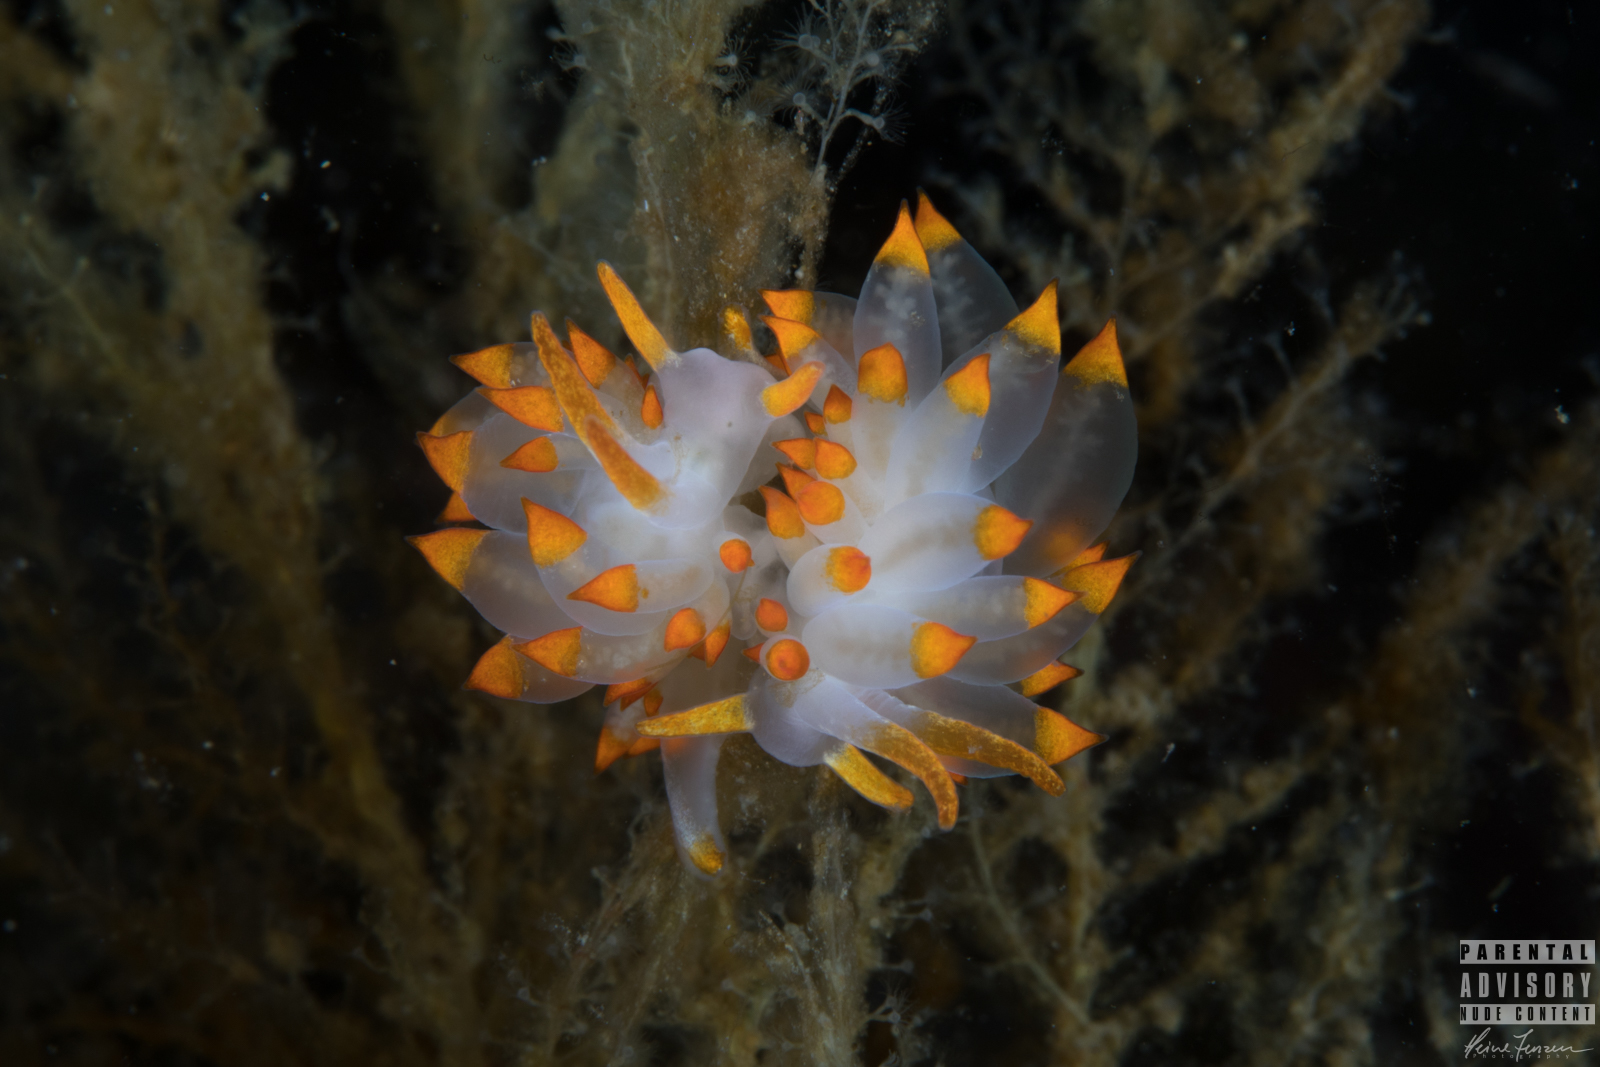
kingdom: Animalia
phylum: Mollusca
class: Gastropoda
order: Nudibranchia
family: Eubranchidae
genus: Amphorina
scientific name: Amphorina farrani
